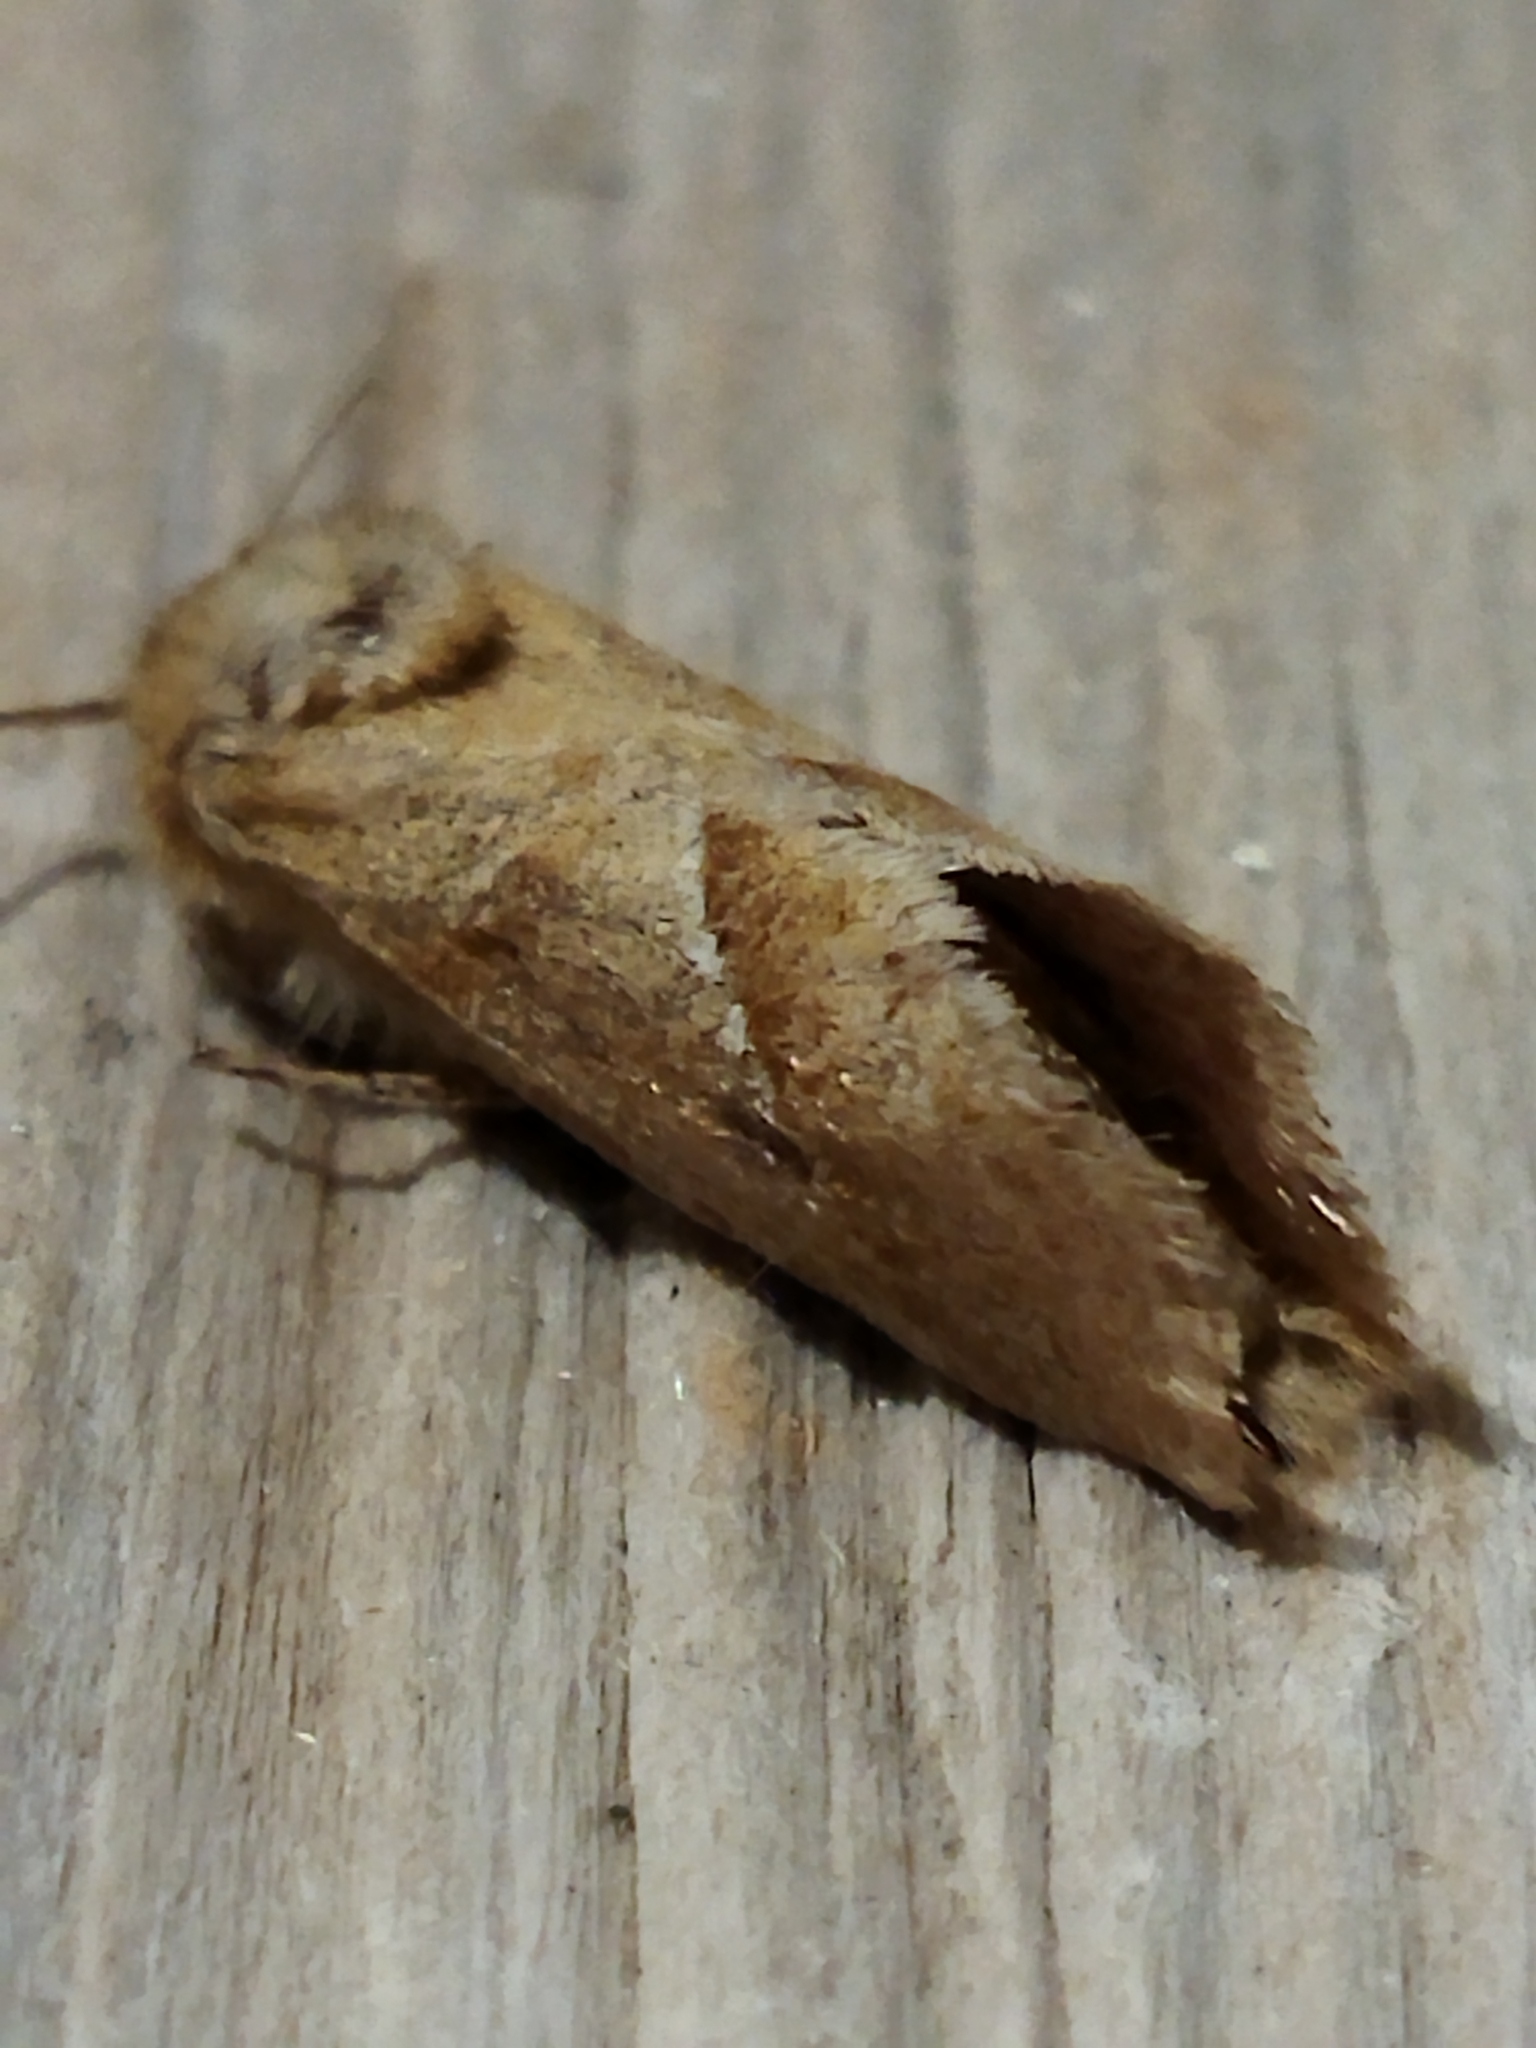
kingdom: Animalia
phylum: Arthropoda
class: Insecta
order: Lepidoptera
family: Hepialidae
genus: Triodia
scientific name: Triodia
